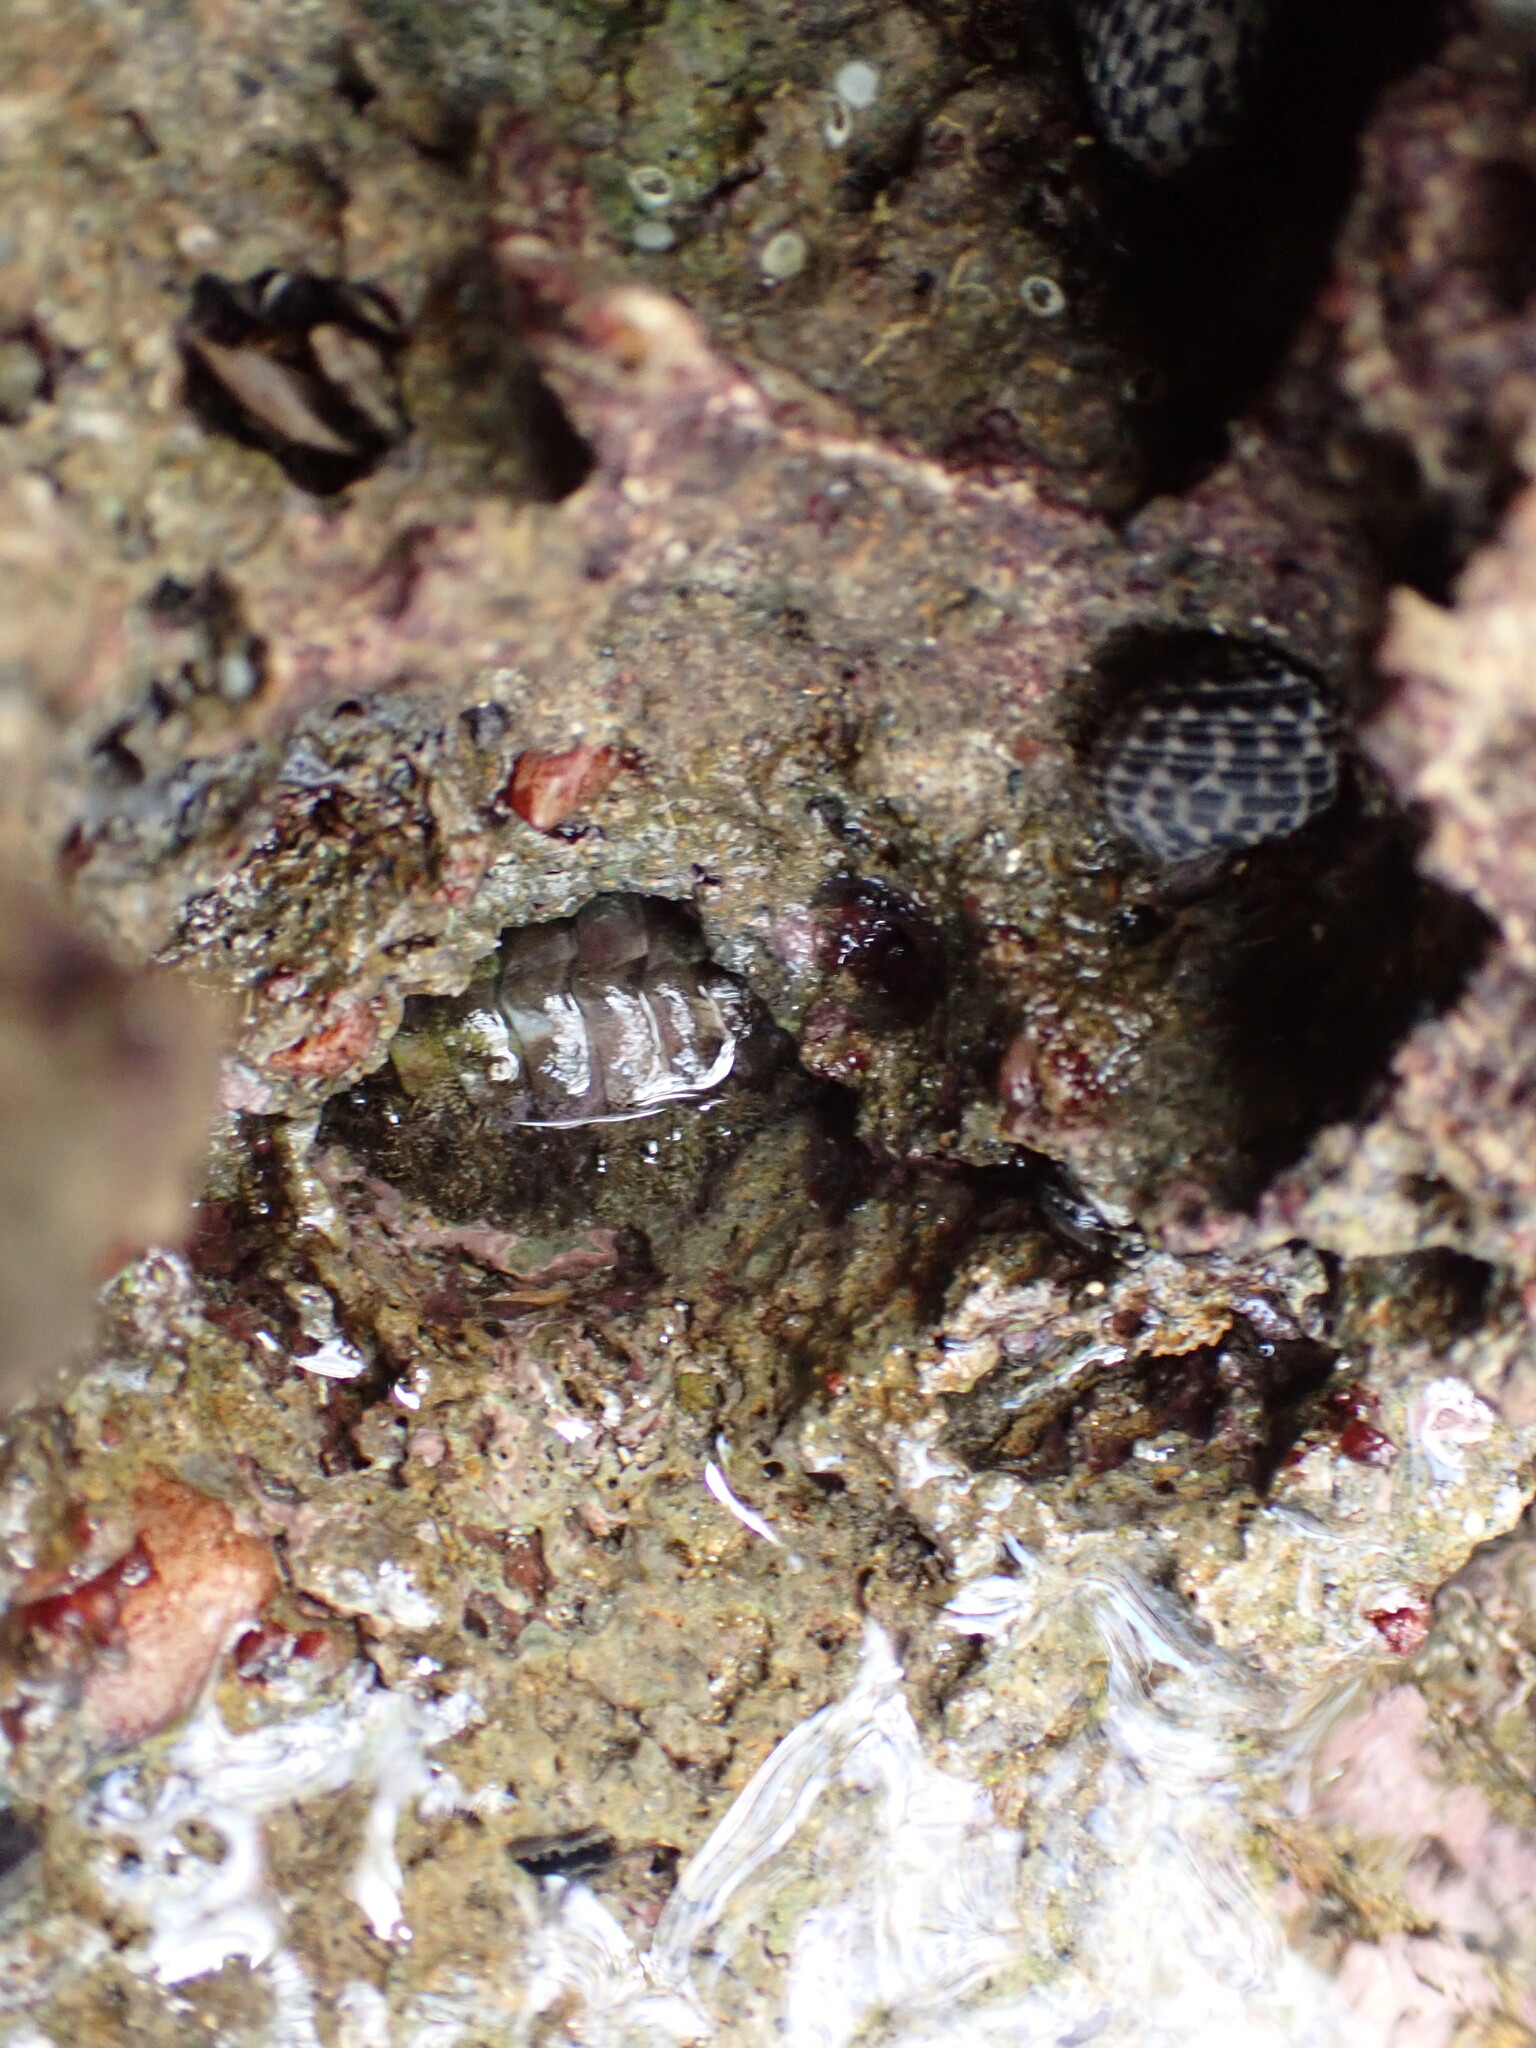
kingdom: Animalia
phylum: Mollusca
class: Polyplacophora
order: Chitonida
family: Chitonidae
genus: Acanthopleura
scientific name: Acanthopleura granulata
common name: West indian fuzzy chiton
